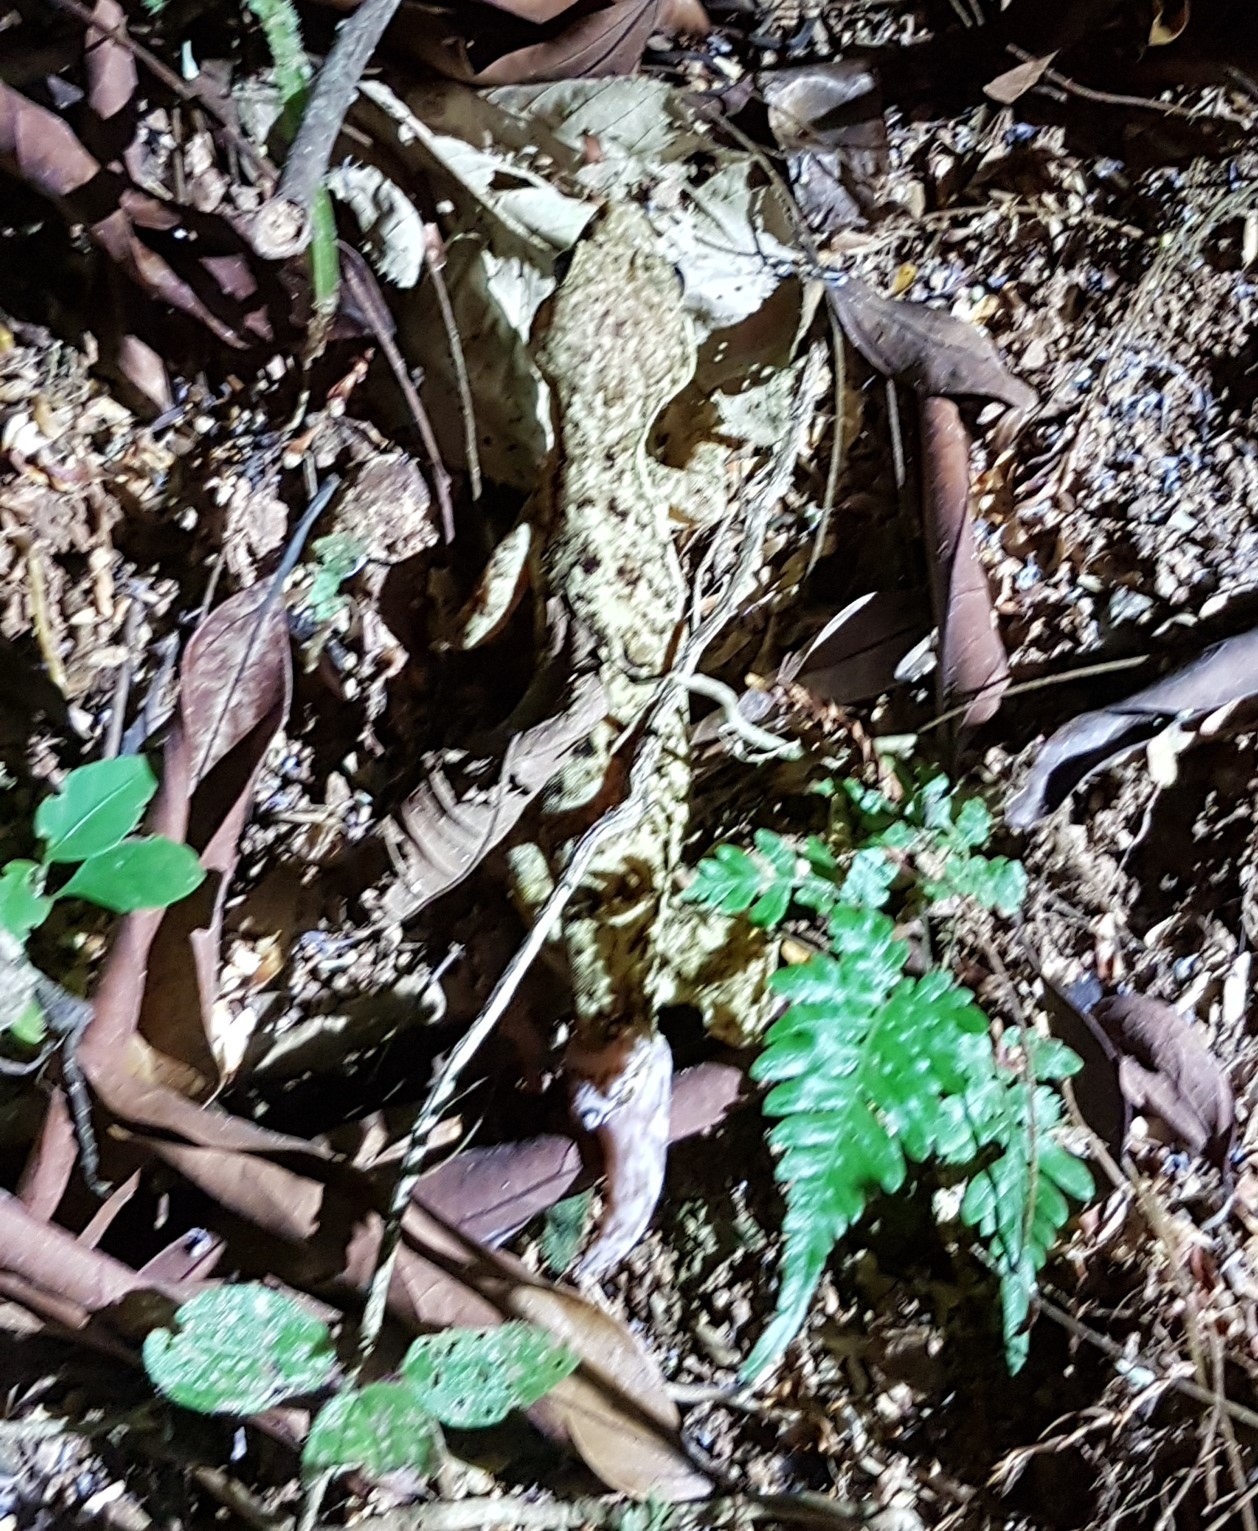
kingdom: Animalia
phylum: Chordata
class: Squamata
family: Phyllodactylidae
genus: Thecadactylus
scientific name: Thecadactylus rapicauda
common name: Turnip-tailed gecko
